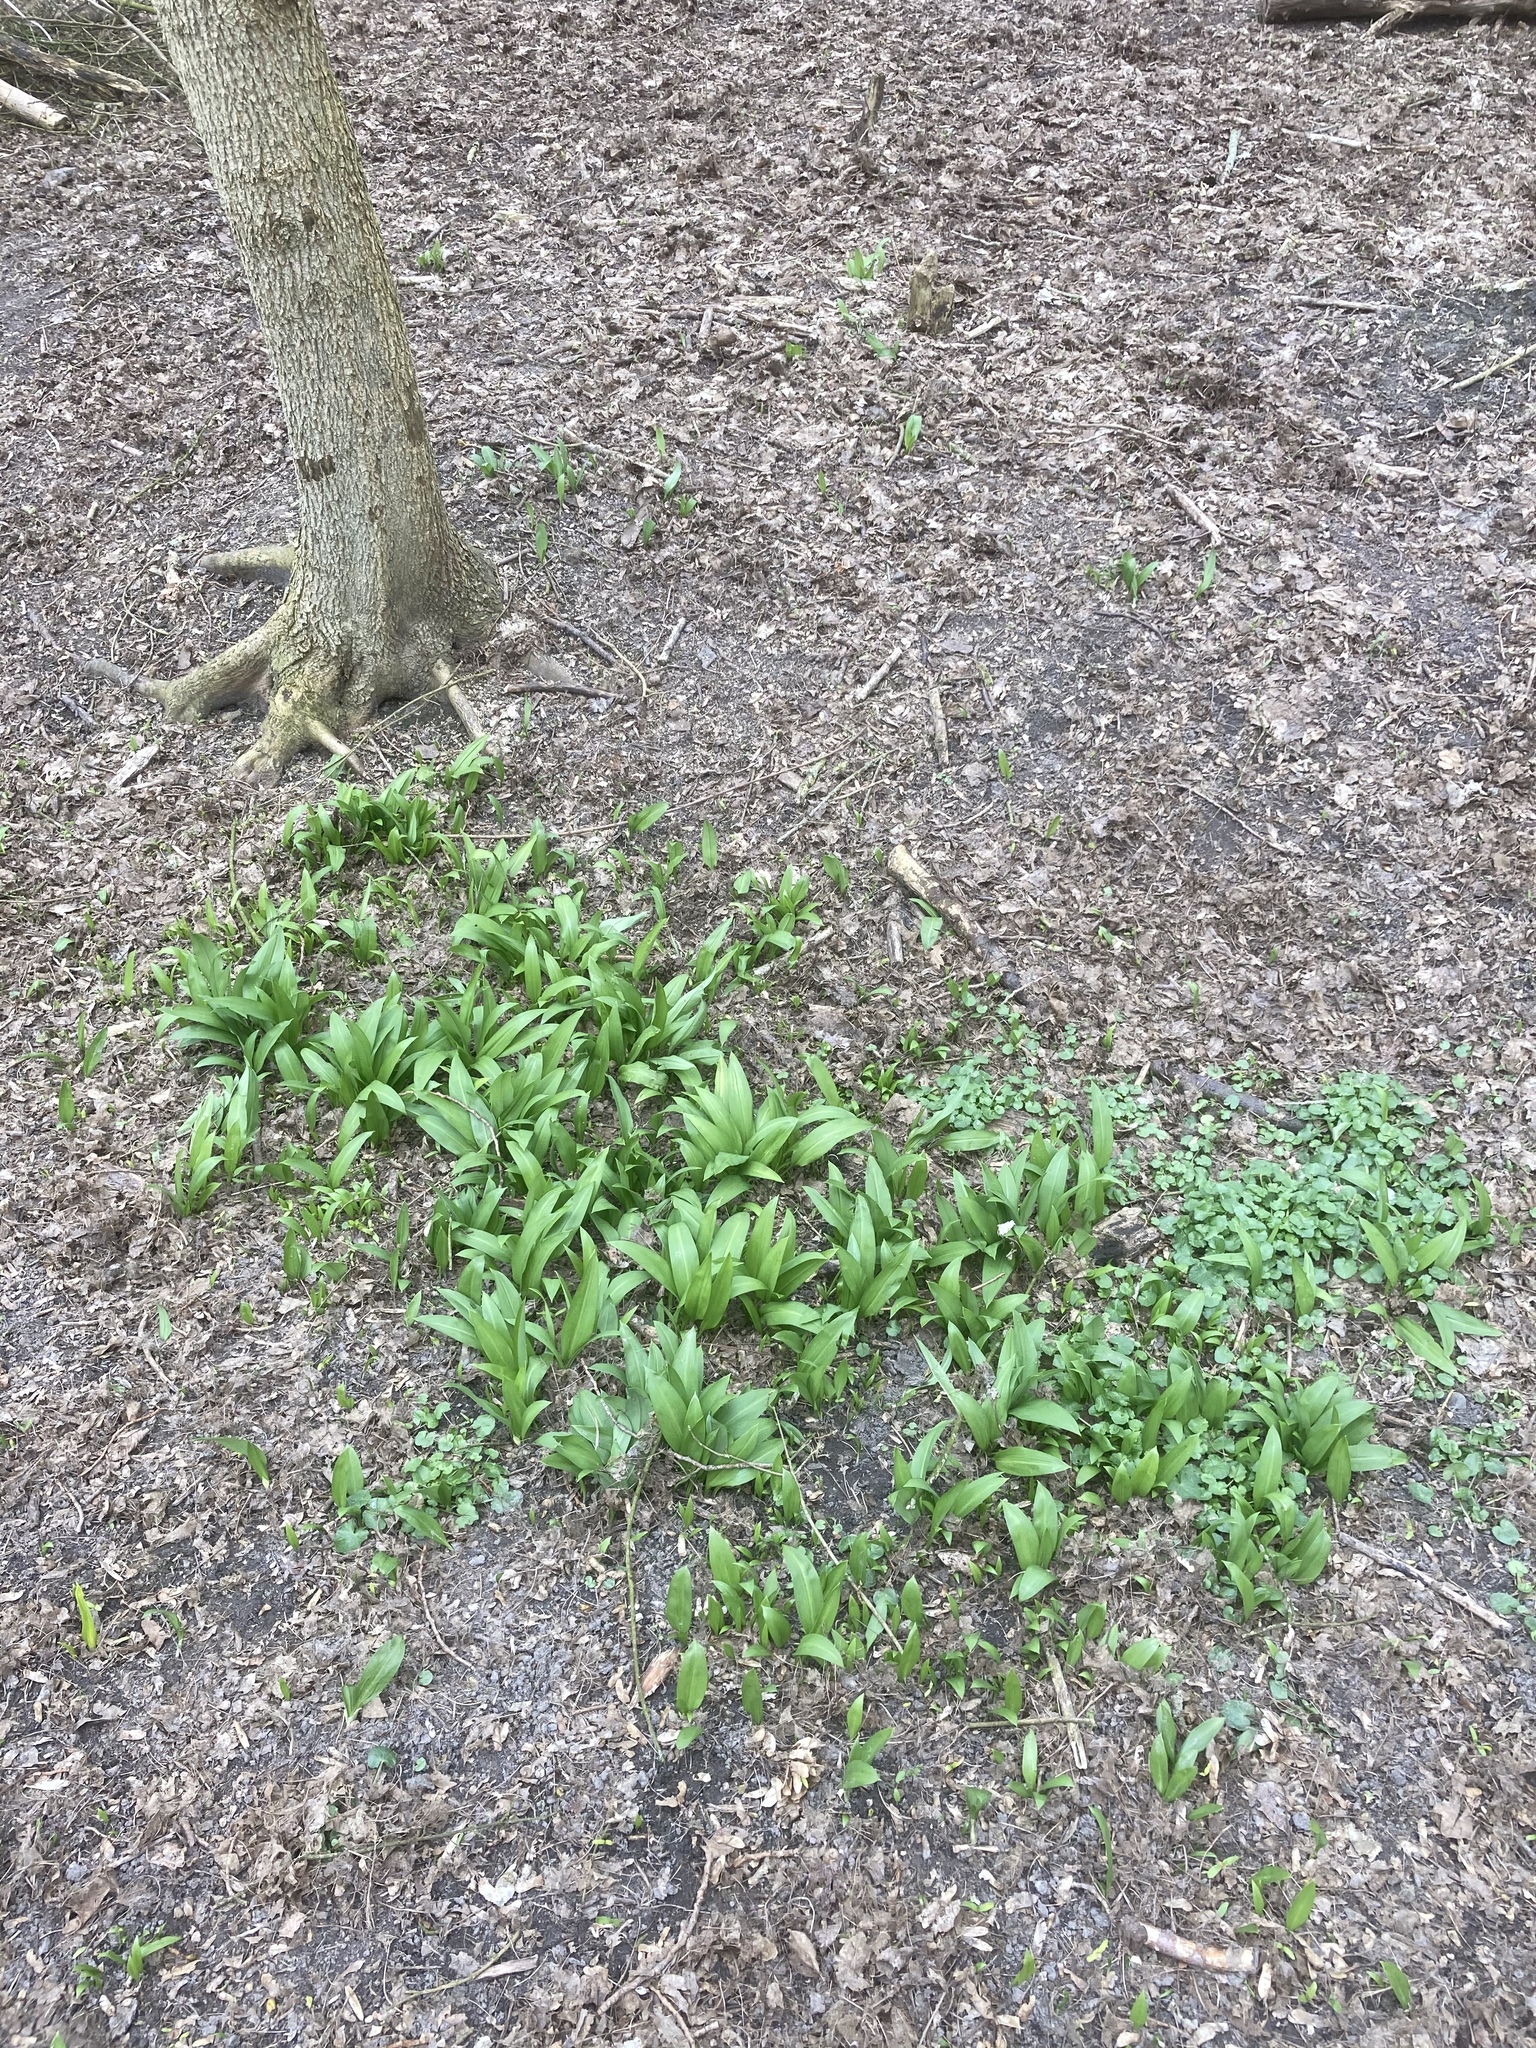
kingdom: Plantae
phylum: Tracheophyta
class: Liliopsida
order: Asparagales
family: Amaryllidaceae
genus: Allium
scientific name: Allium ursinum
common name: Ramsons
